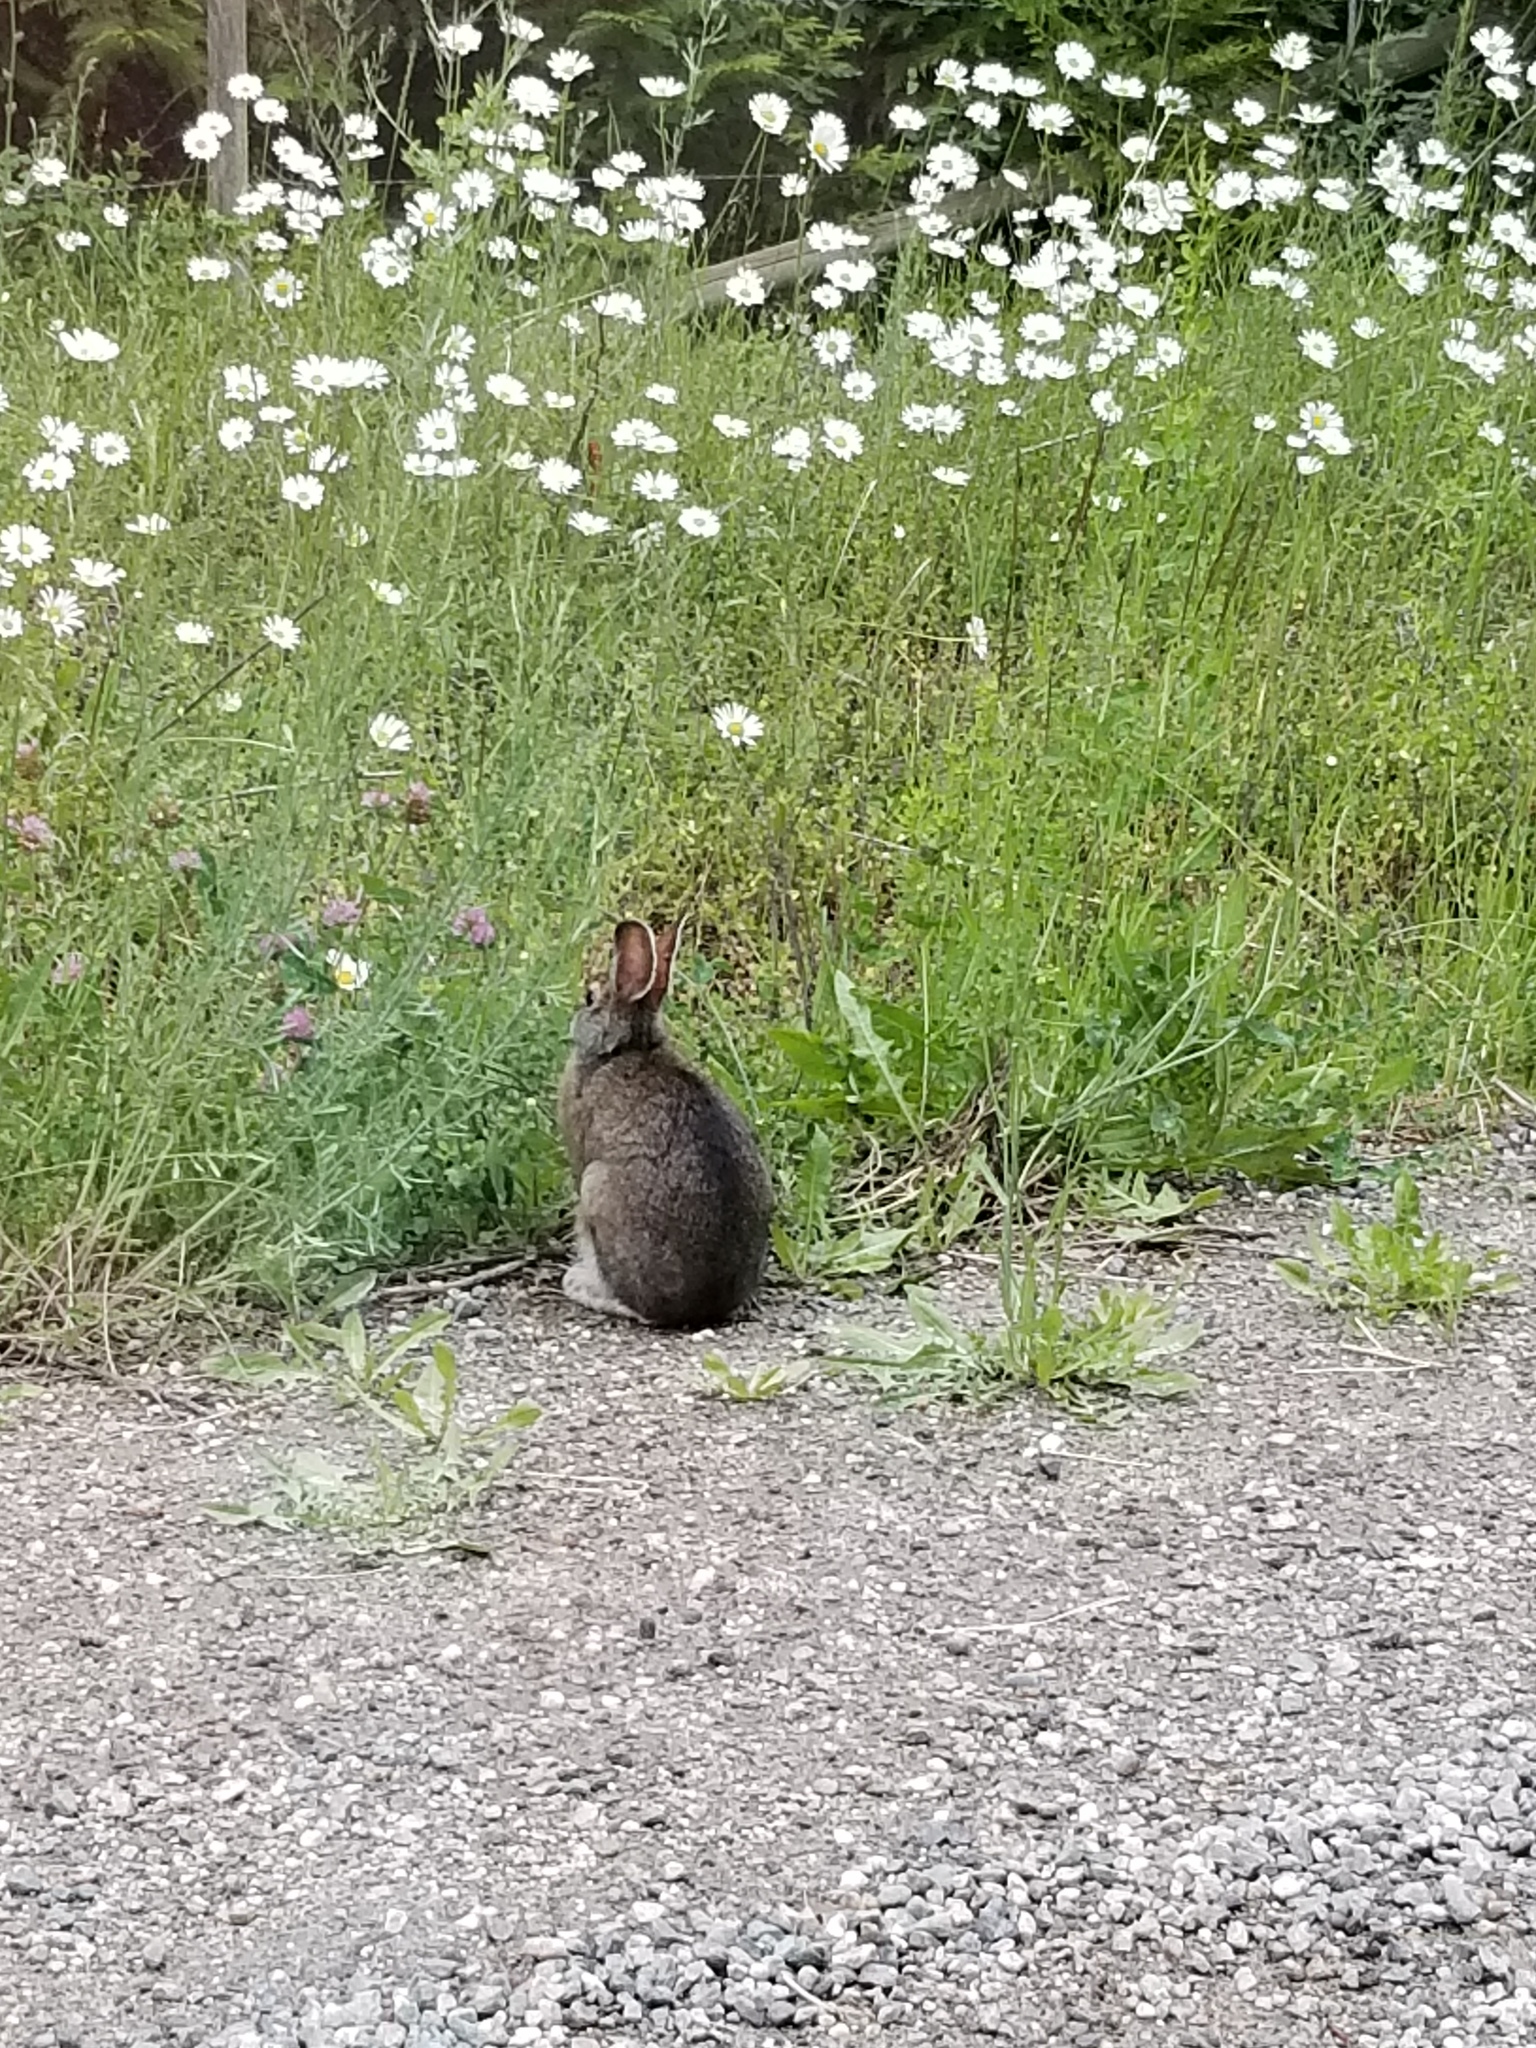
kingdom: Animalia
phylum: Chordata
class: Mammalia
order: Lagomorpha
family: Leporidae
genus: Lepus
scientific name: Lepus americanus
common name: Snowshoe hare
